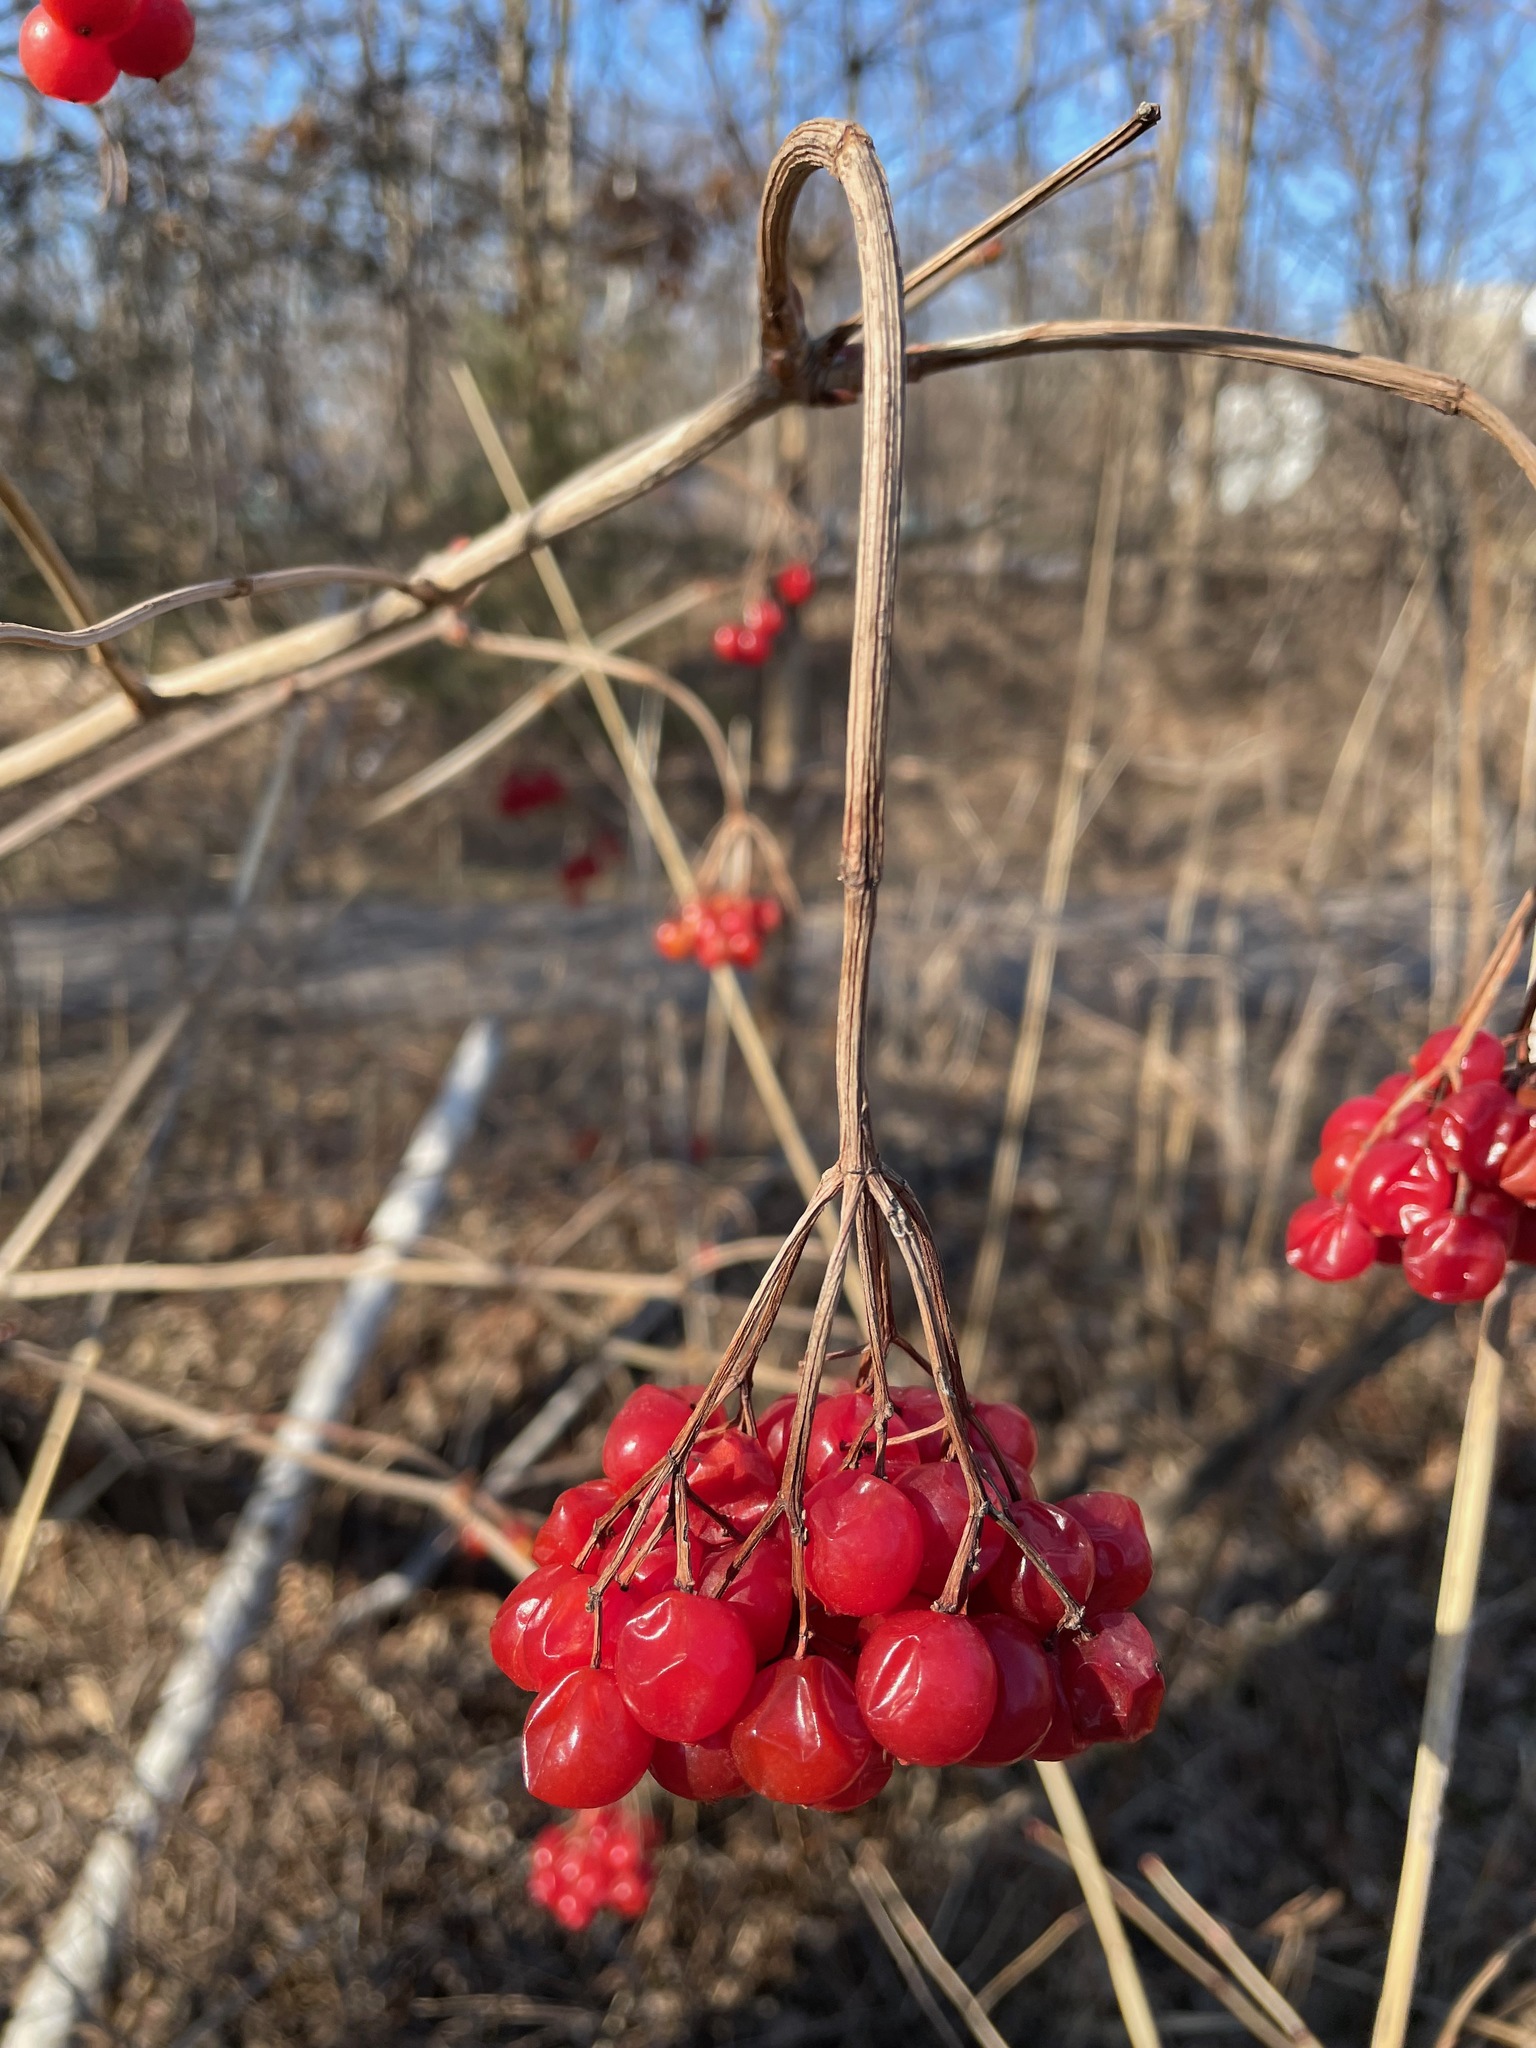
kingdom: Plantae
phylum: Tracheophyta
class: Magnoliopsida
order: Dipsacales
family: Viburnaceae
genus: Viburnum
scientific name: Viburnum opulus
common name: Guelder-rose
